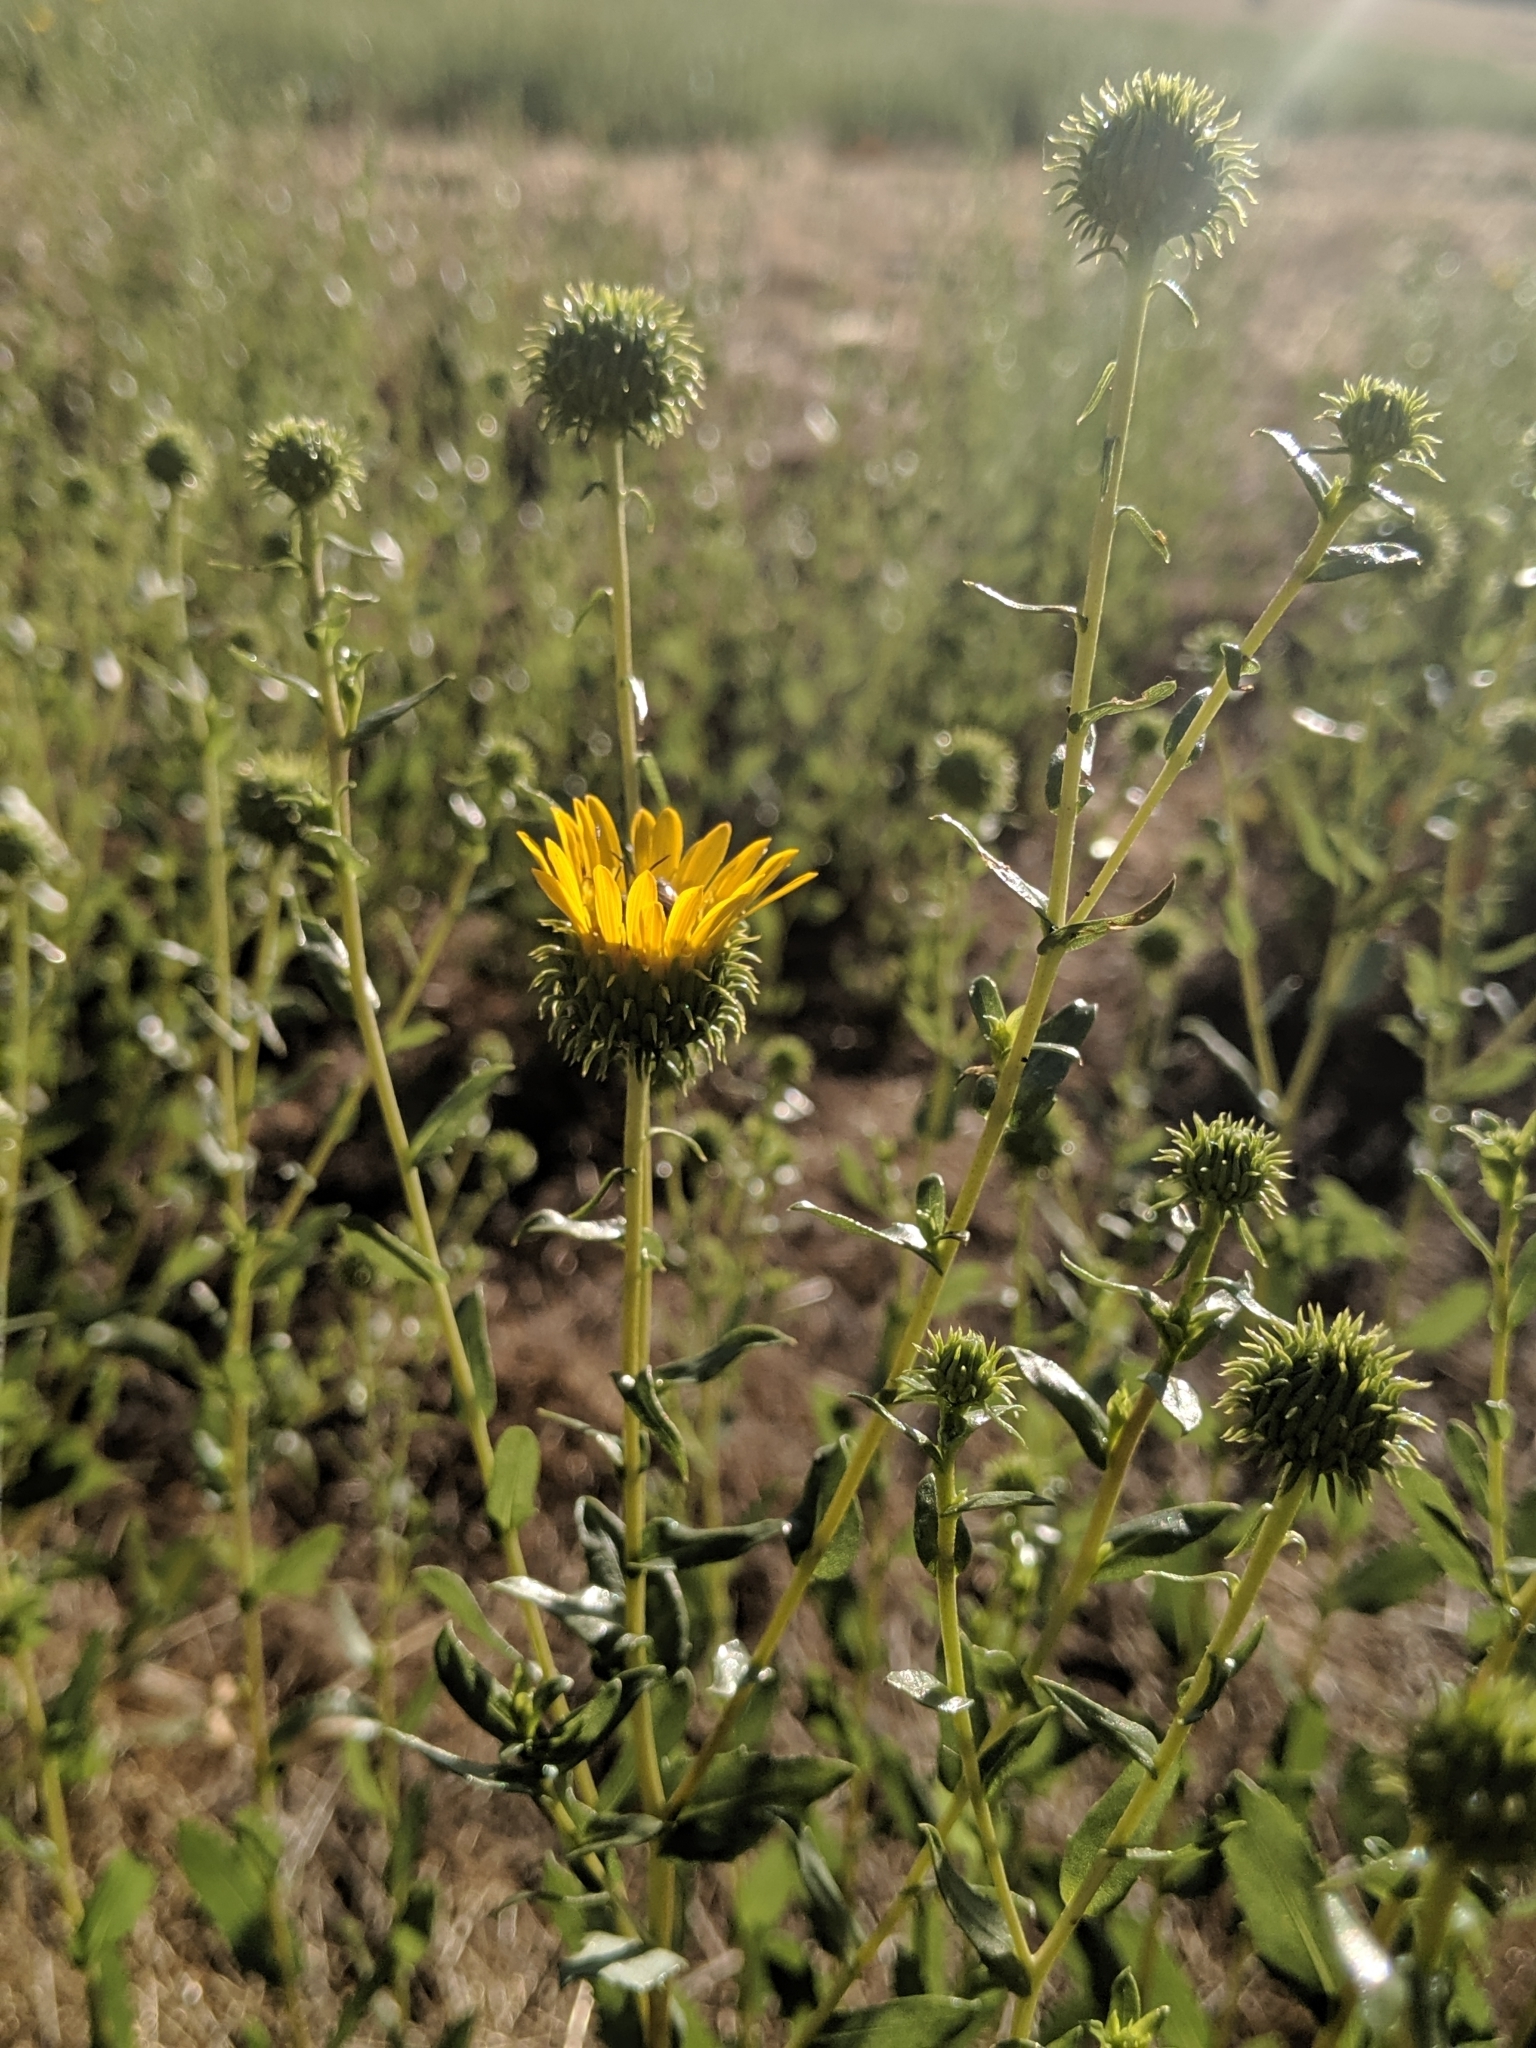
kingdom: Plantae
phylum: Tracheophyta
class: Magnoliopsida
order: Asterales
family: Asteraceae
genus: Grindelia
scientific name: Grindelia hirsutula
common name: Hairy gumweed
